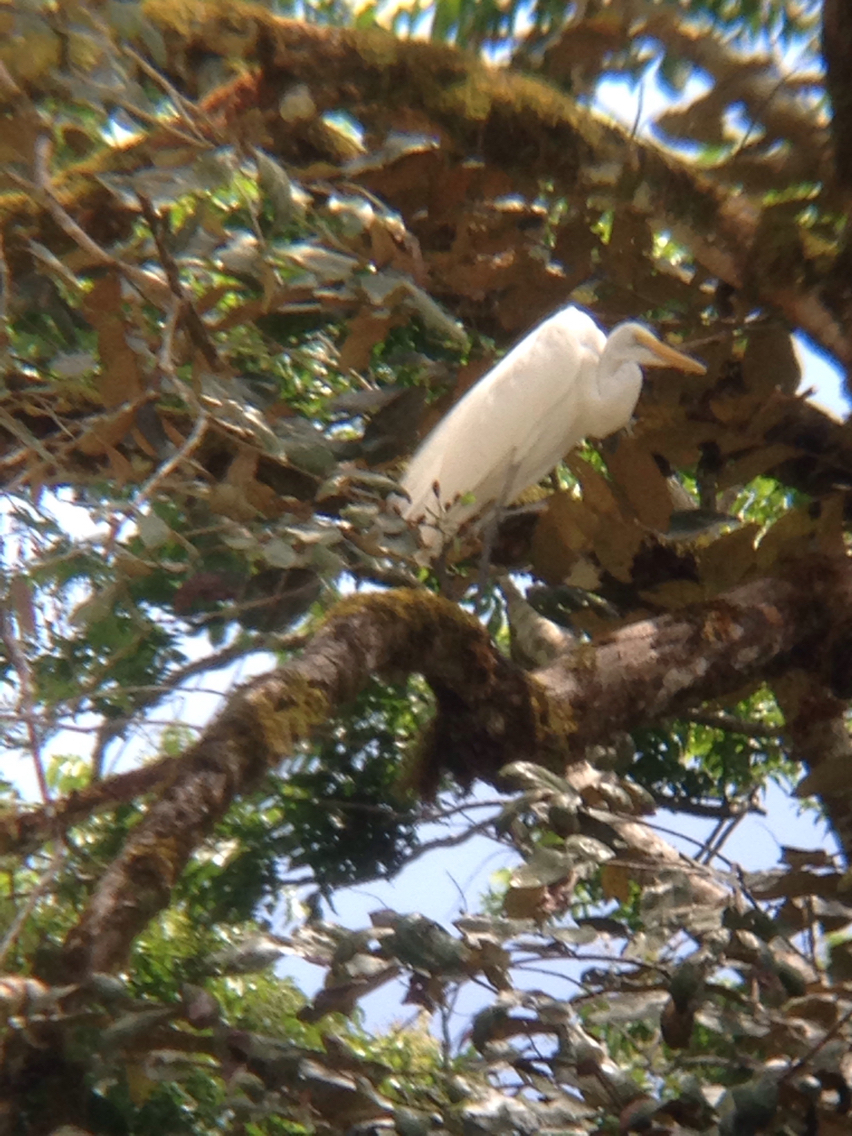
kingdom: Animalia
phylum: Chordata
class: Aves
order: Pelecaniformes
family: Ardeidae
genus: Ardea
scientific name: Ardea alba
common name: Great egret
